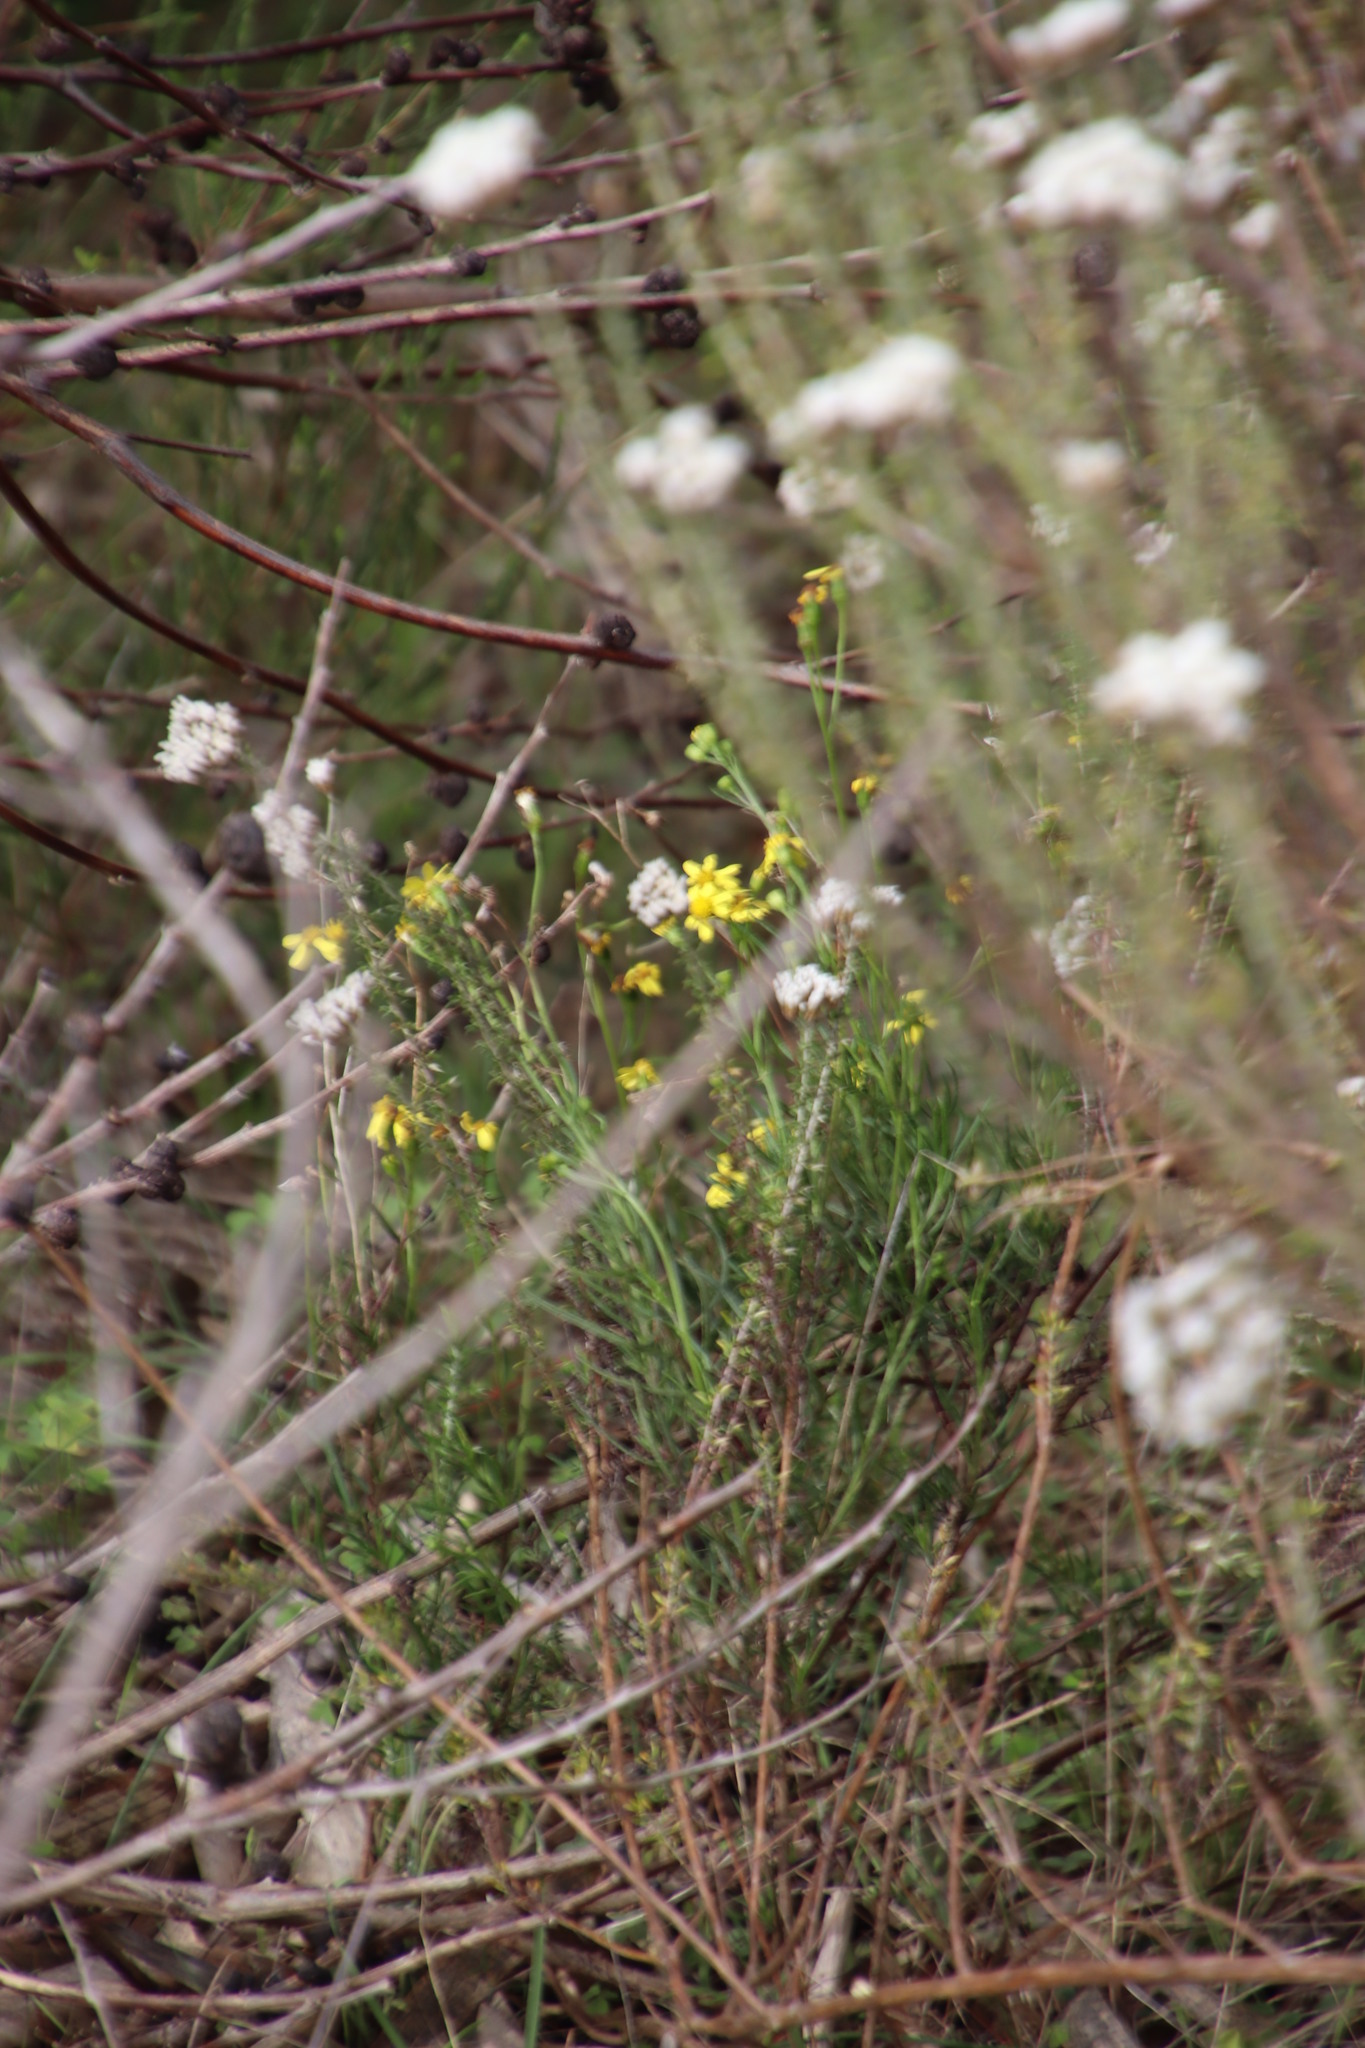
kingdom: Plantae
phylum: Tracheophyta
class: Magnoliopsida
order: Asterales
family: Asteraceae
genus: Senecio
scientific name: Senecio burchellii
